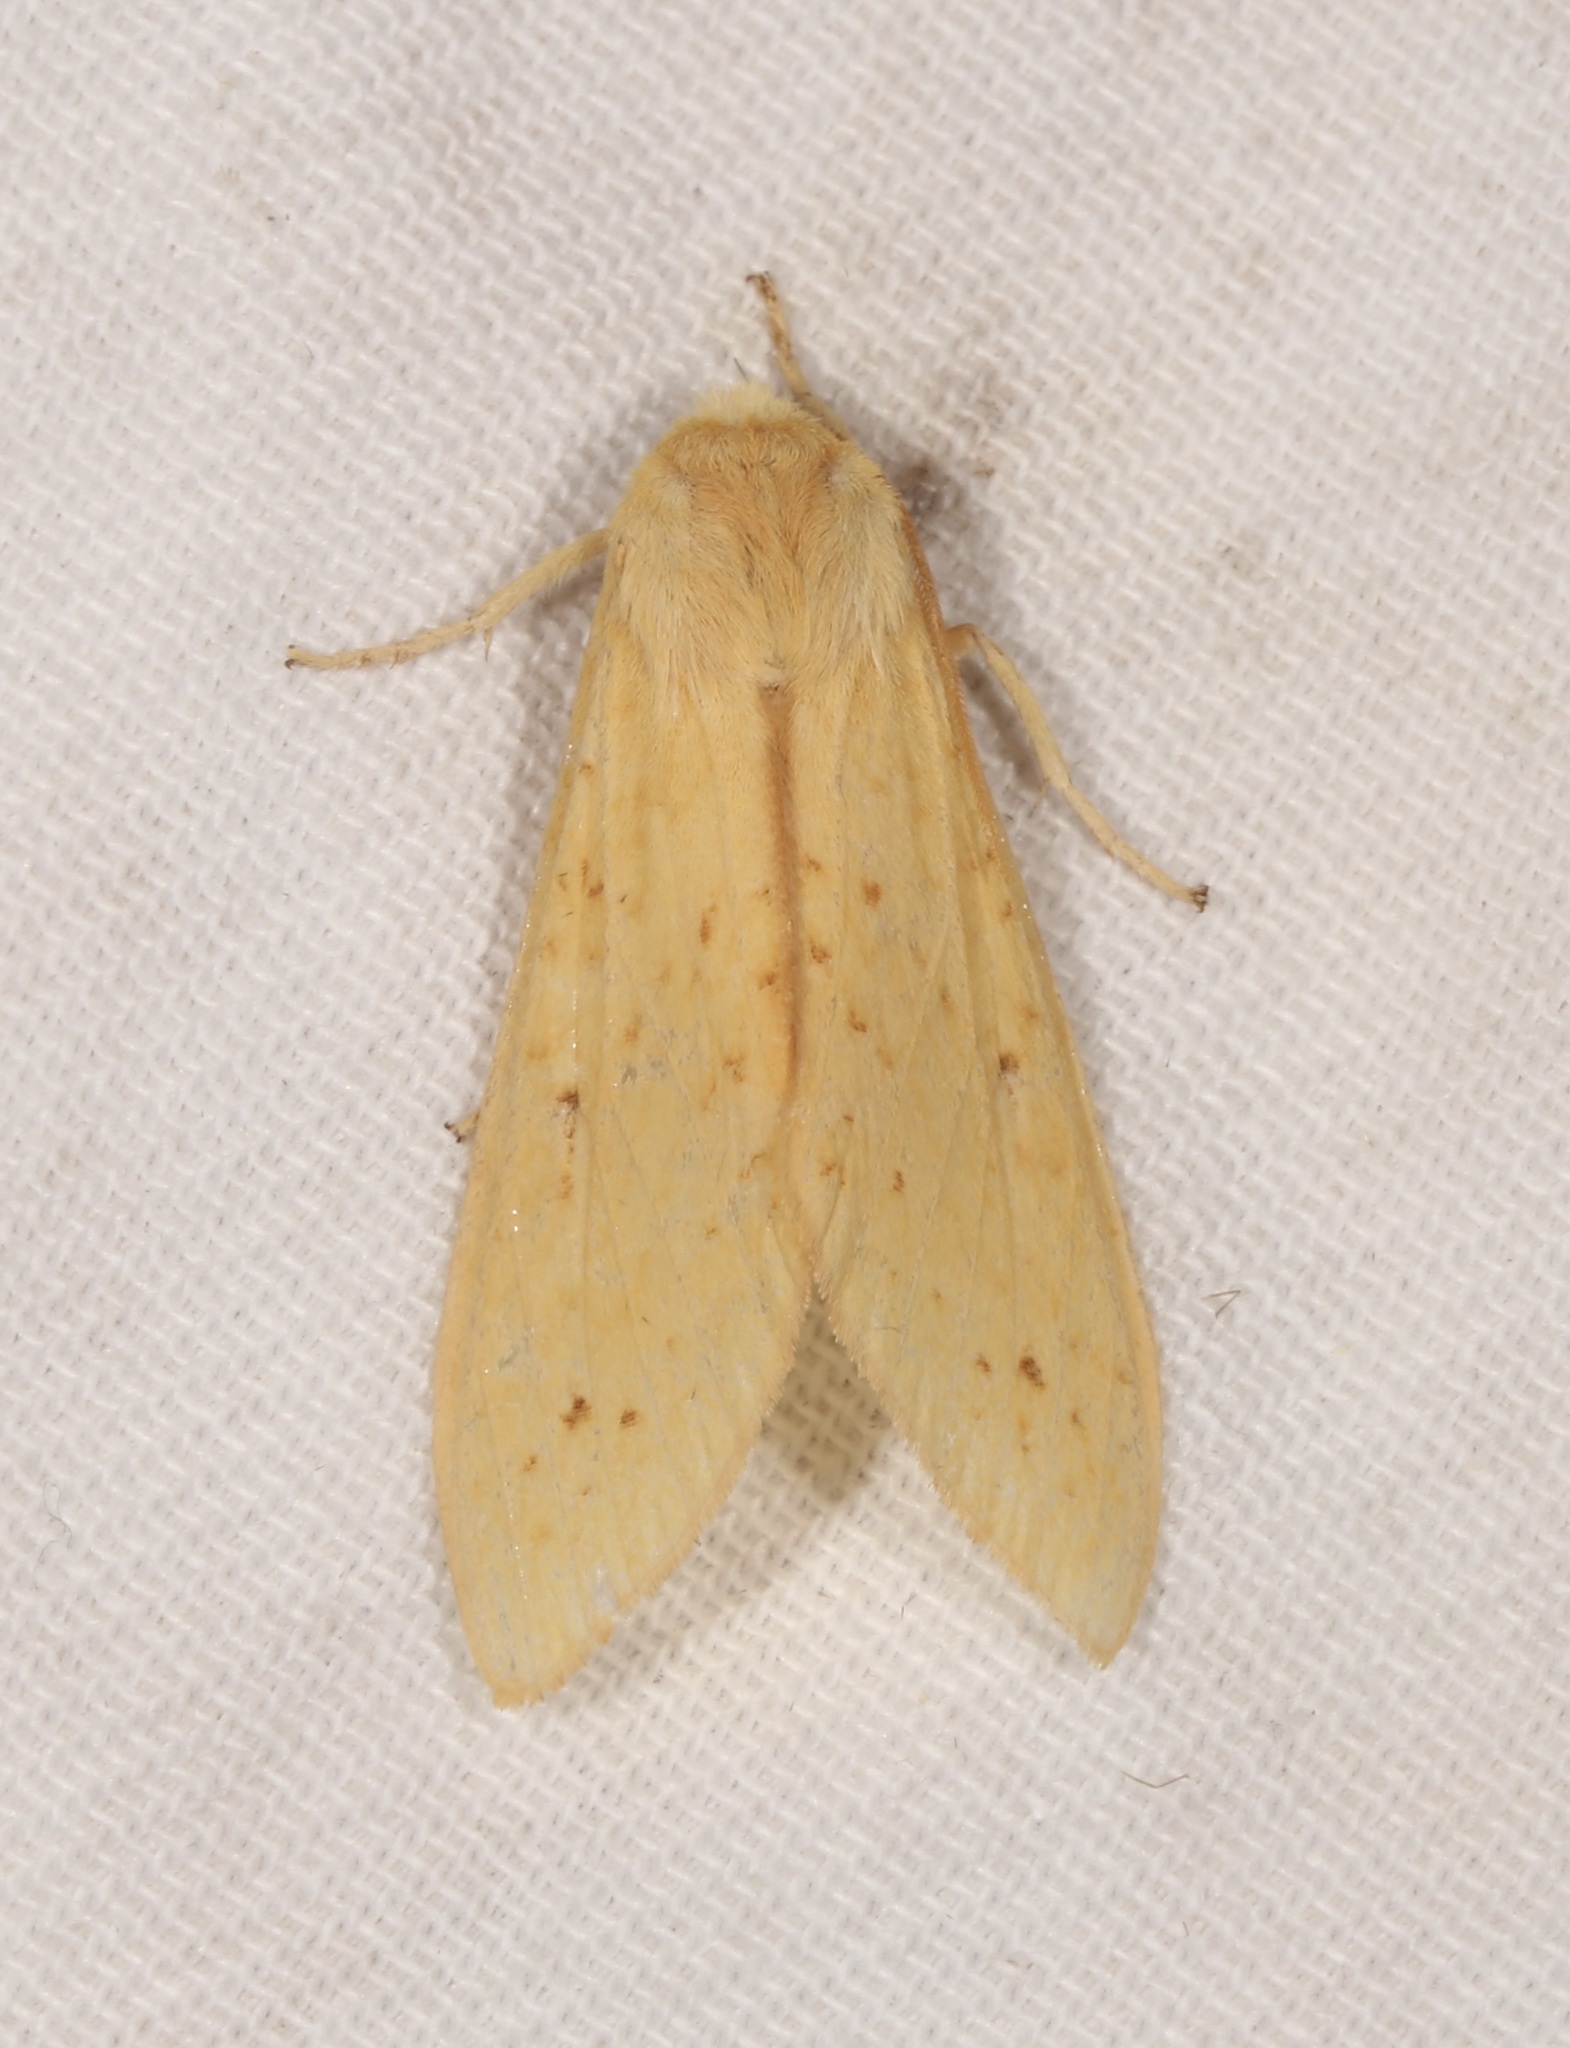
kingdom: Animalia
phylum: Arthropoda
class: Insecta
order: Lepidoptera
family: Erebidae
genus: Lophocampa
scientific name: Lophocampa pura
